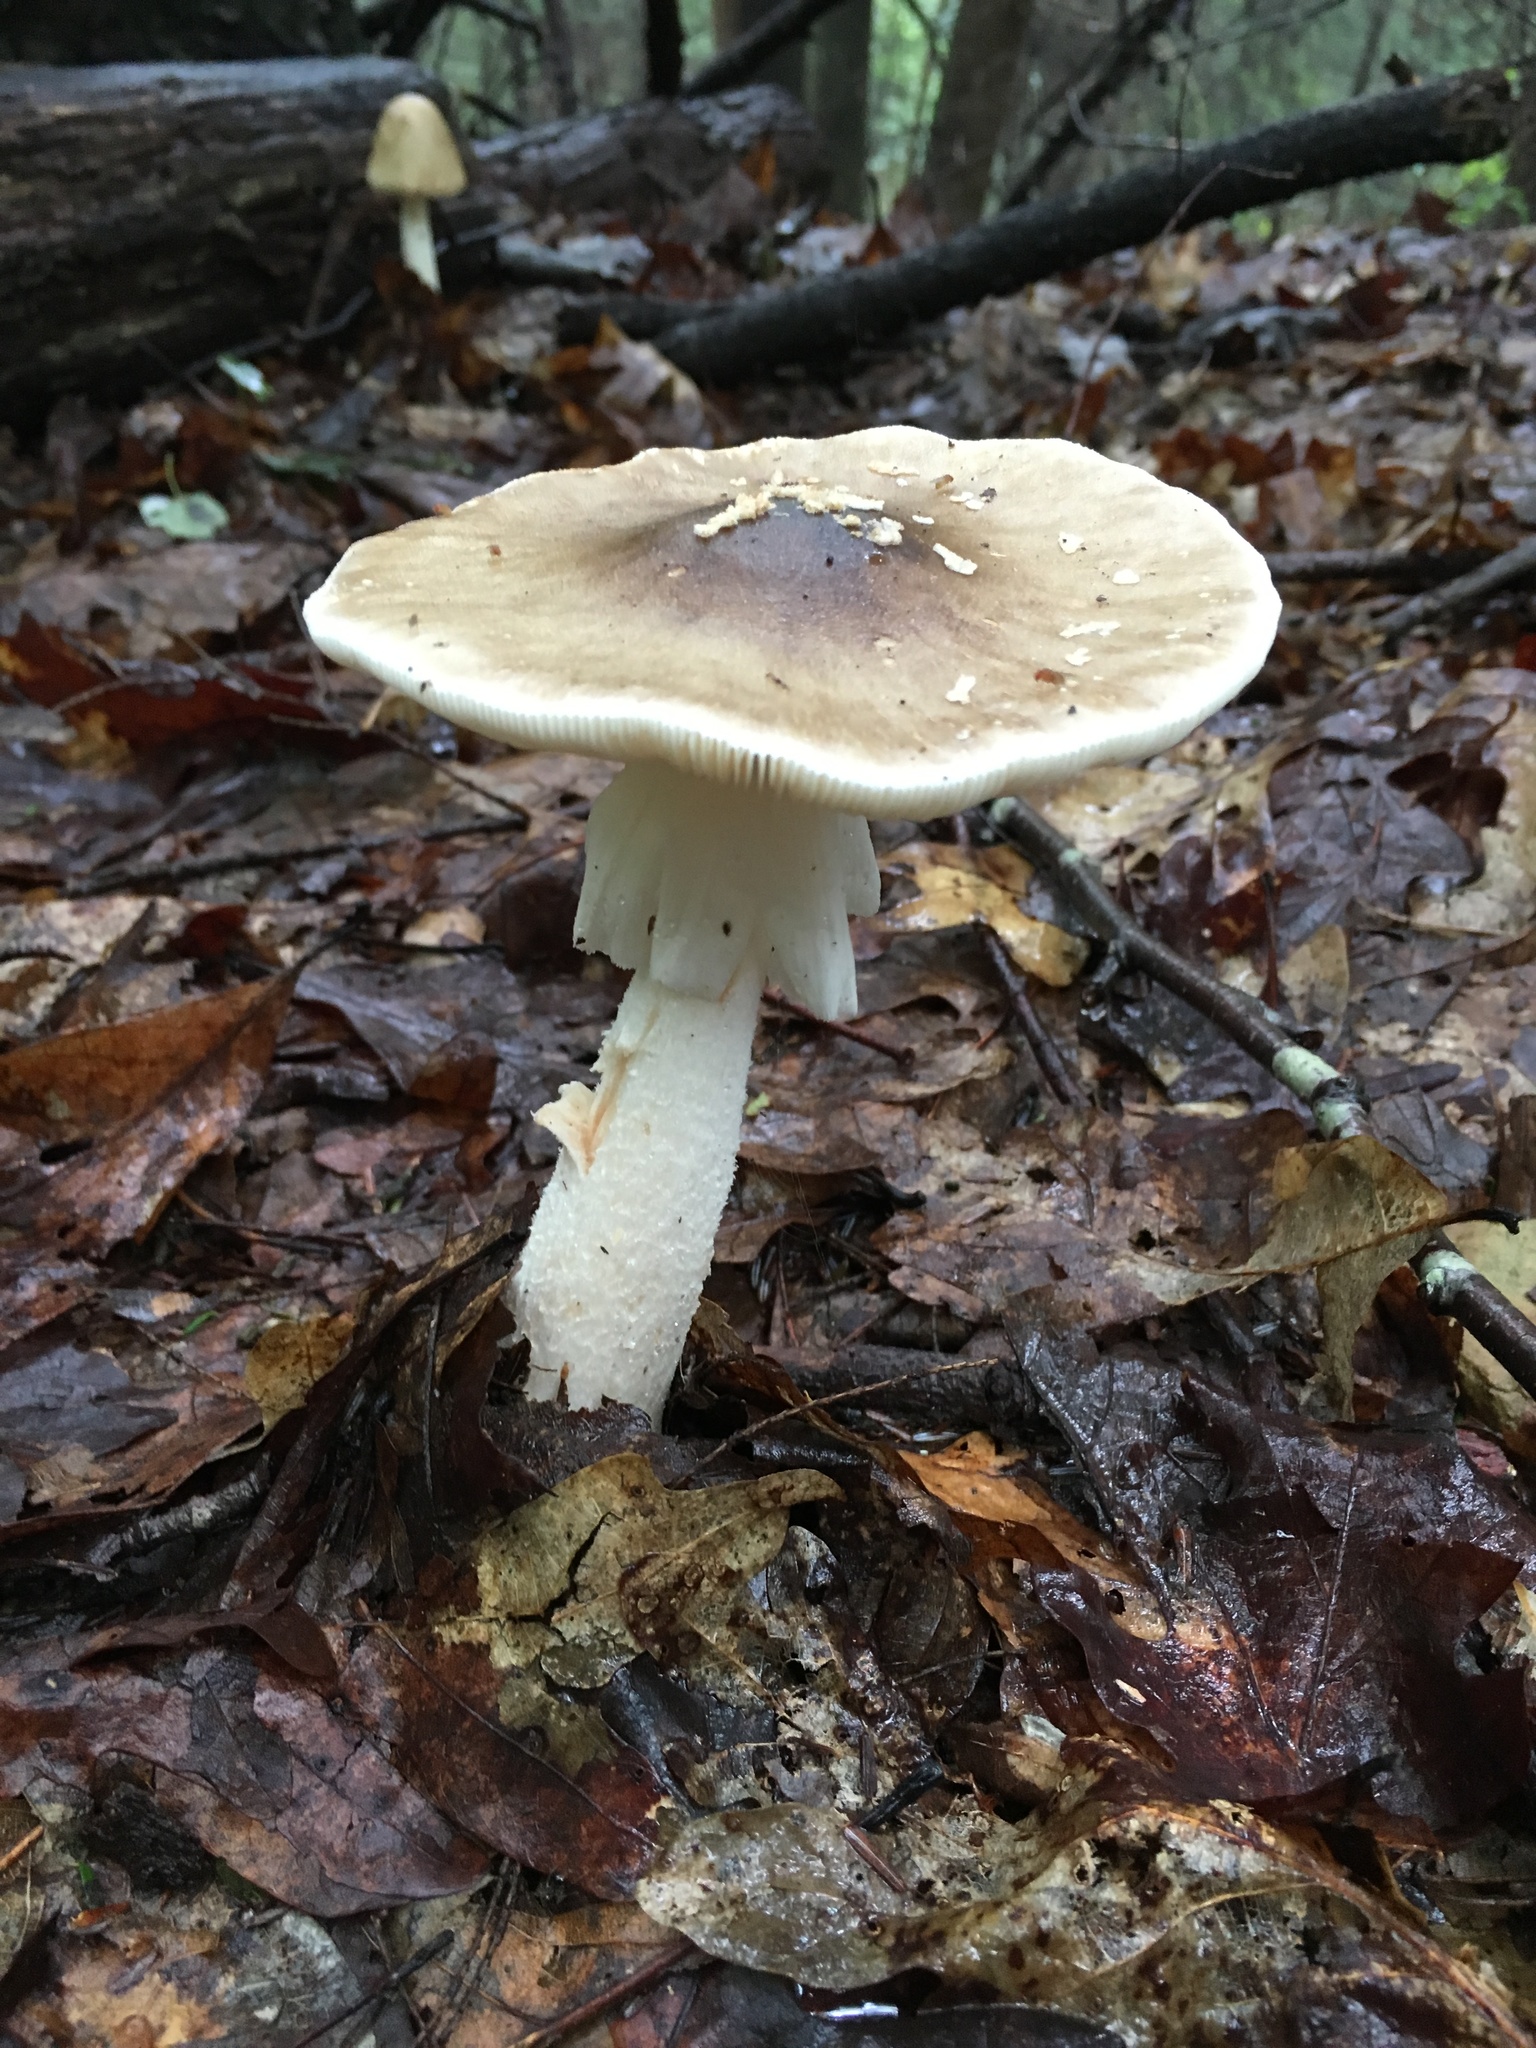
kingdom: Fungi
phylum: Basidiomycota
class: Agaricomycetes
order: Agaricales
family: Amanitaceae
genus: Amanita
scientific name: Amanita brunnescens
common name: Brown american star-footed amanita
